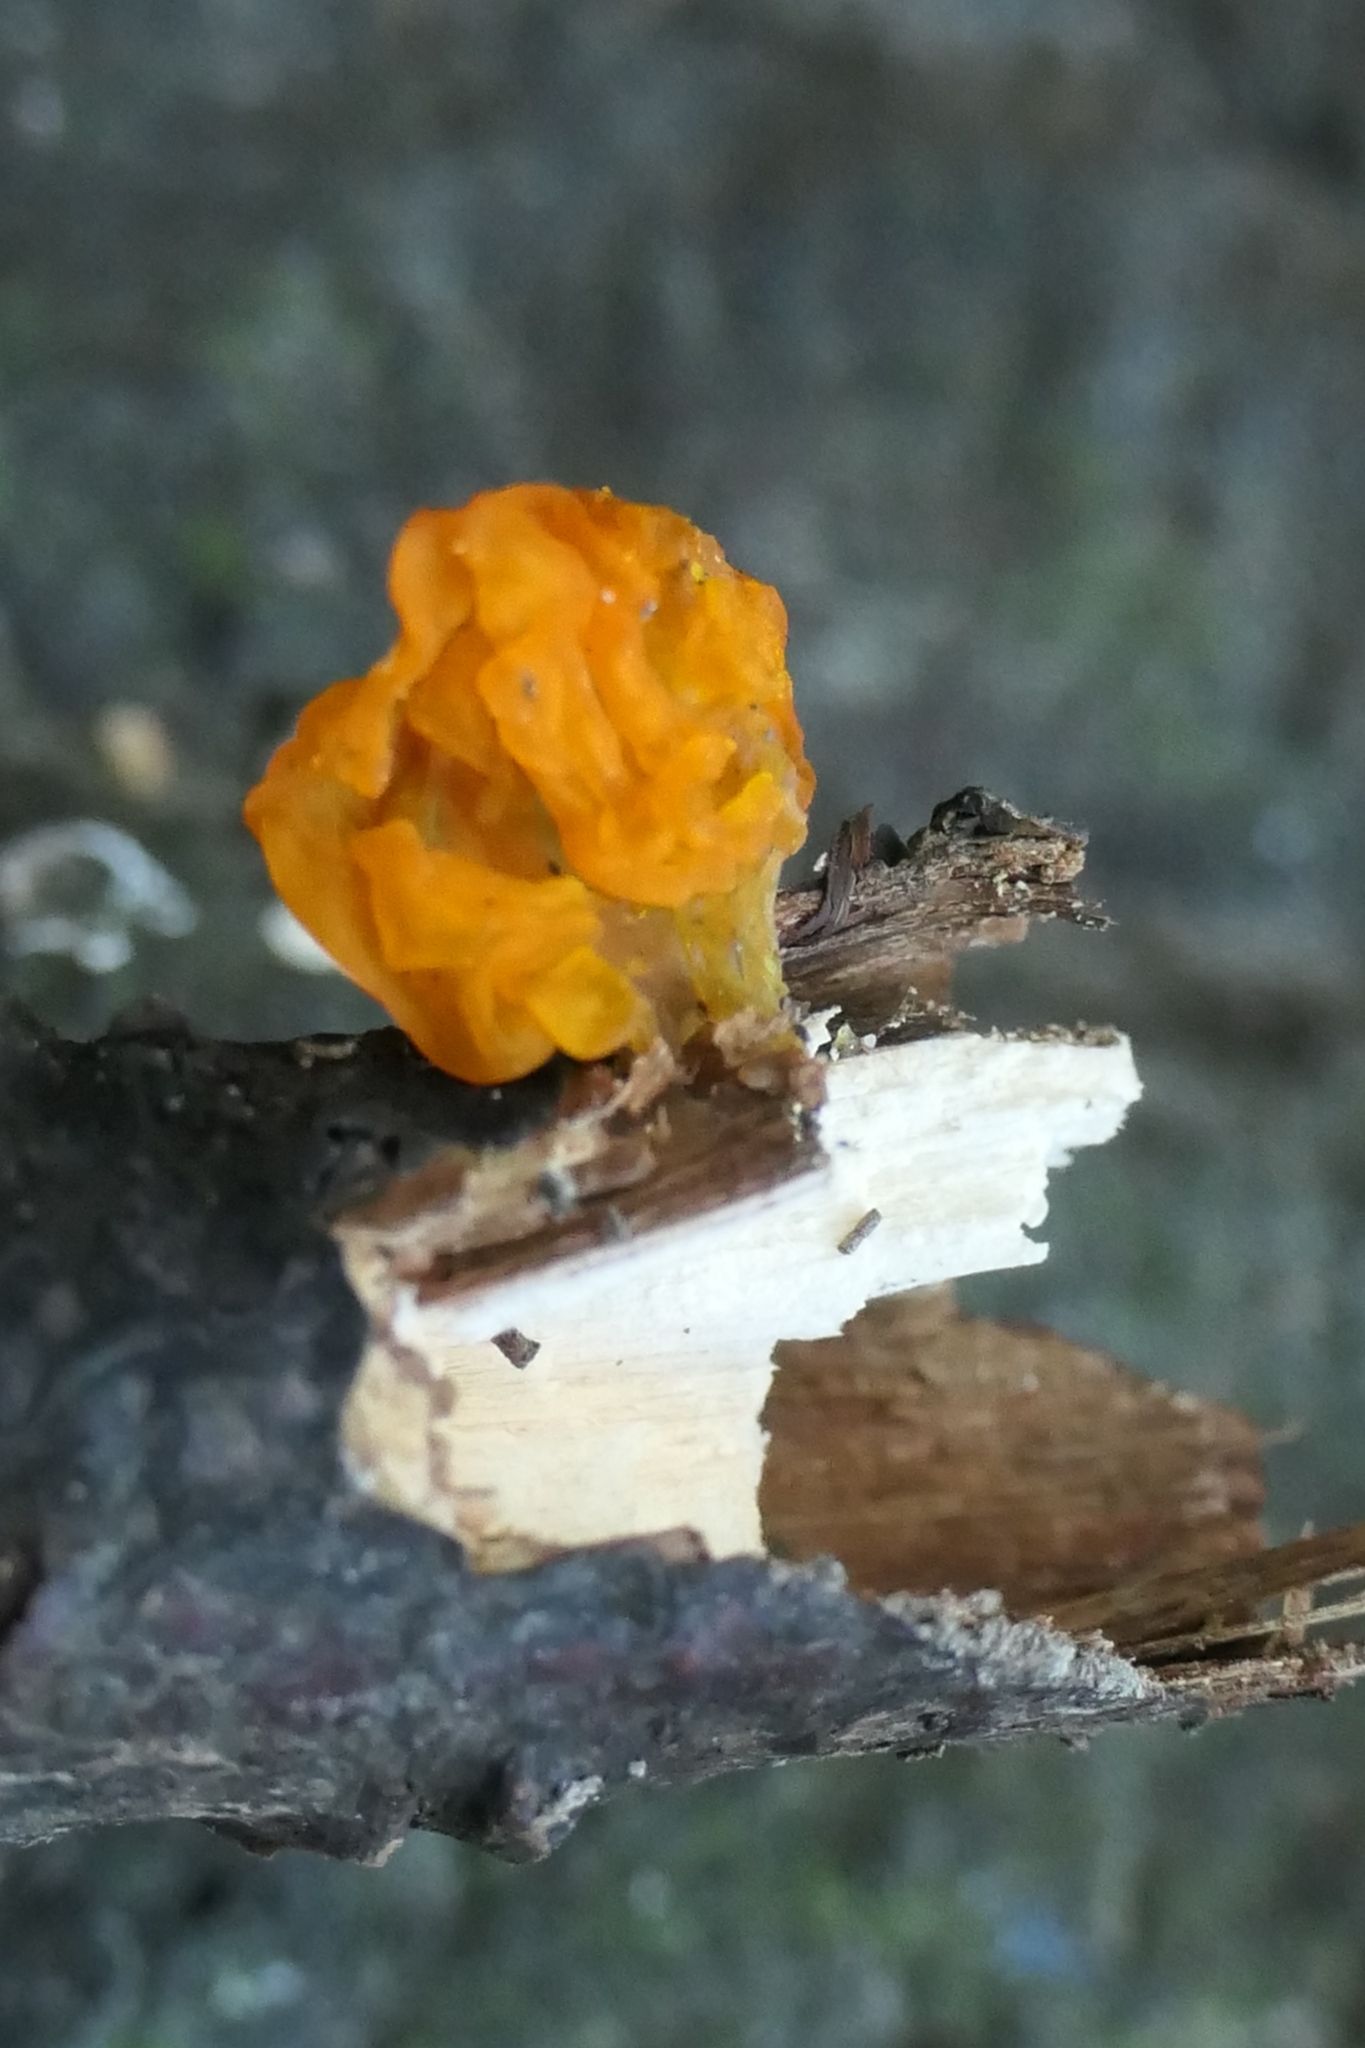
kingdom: Fungi
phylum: Basidiomycota
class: Tremellomycetes
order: Tremellales
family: Tremellaceae
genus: Tremella
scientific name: Tremella mesenterica
